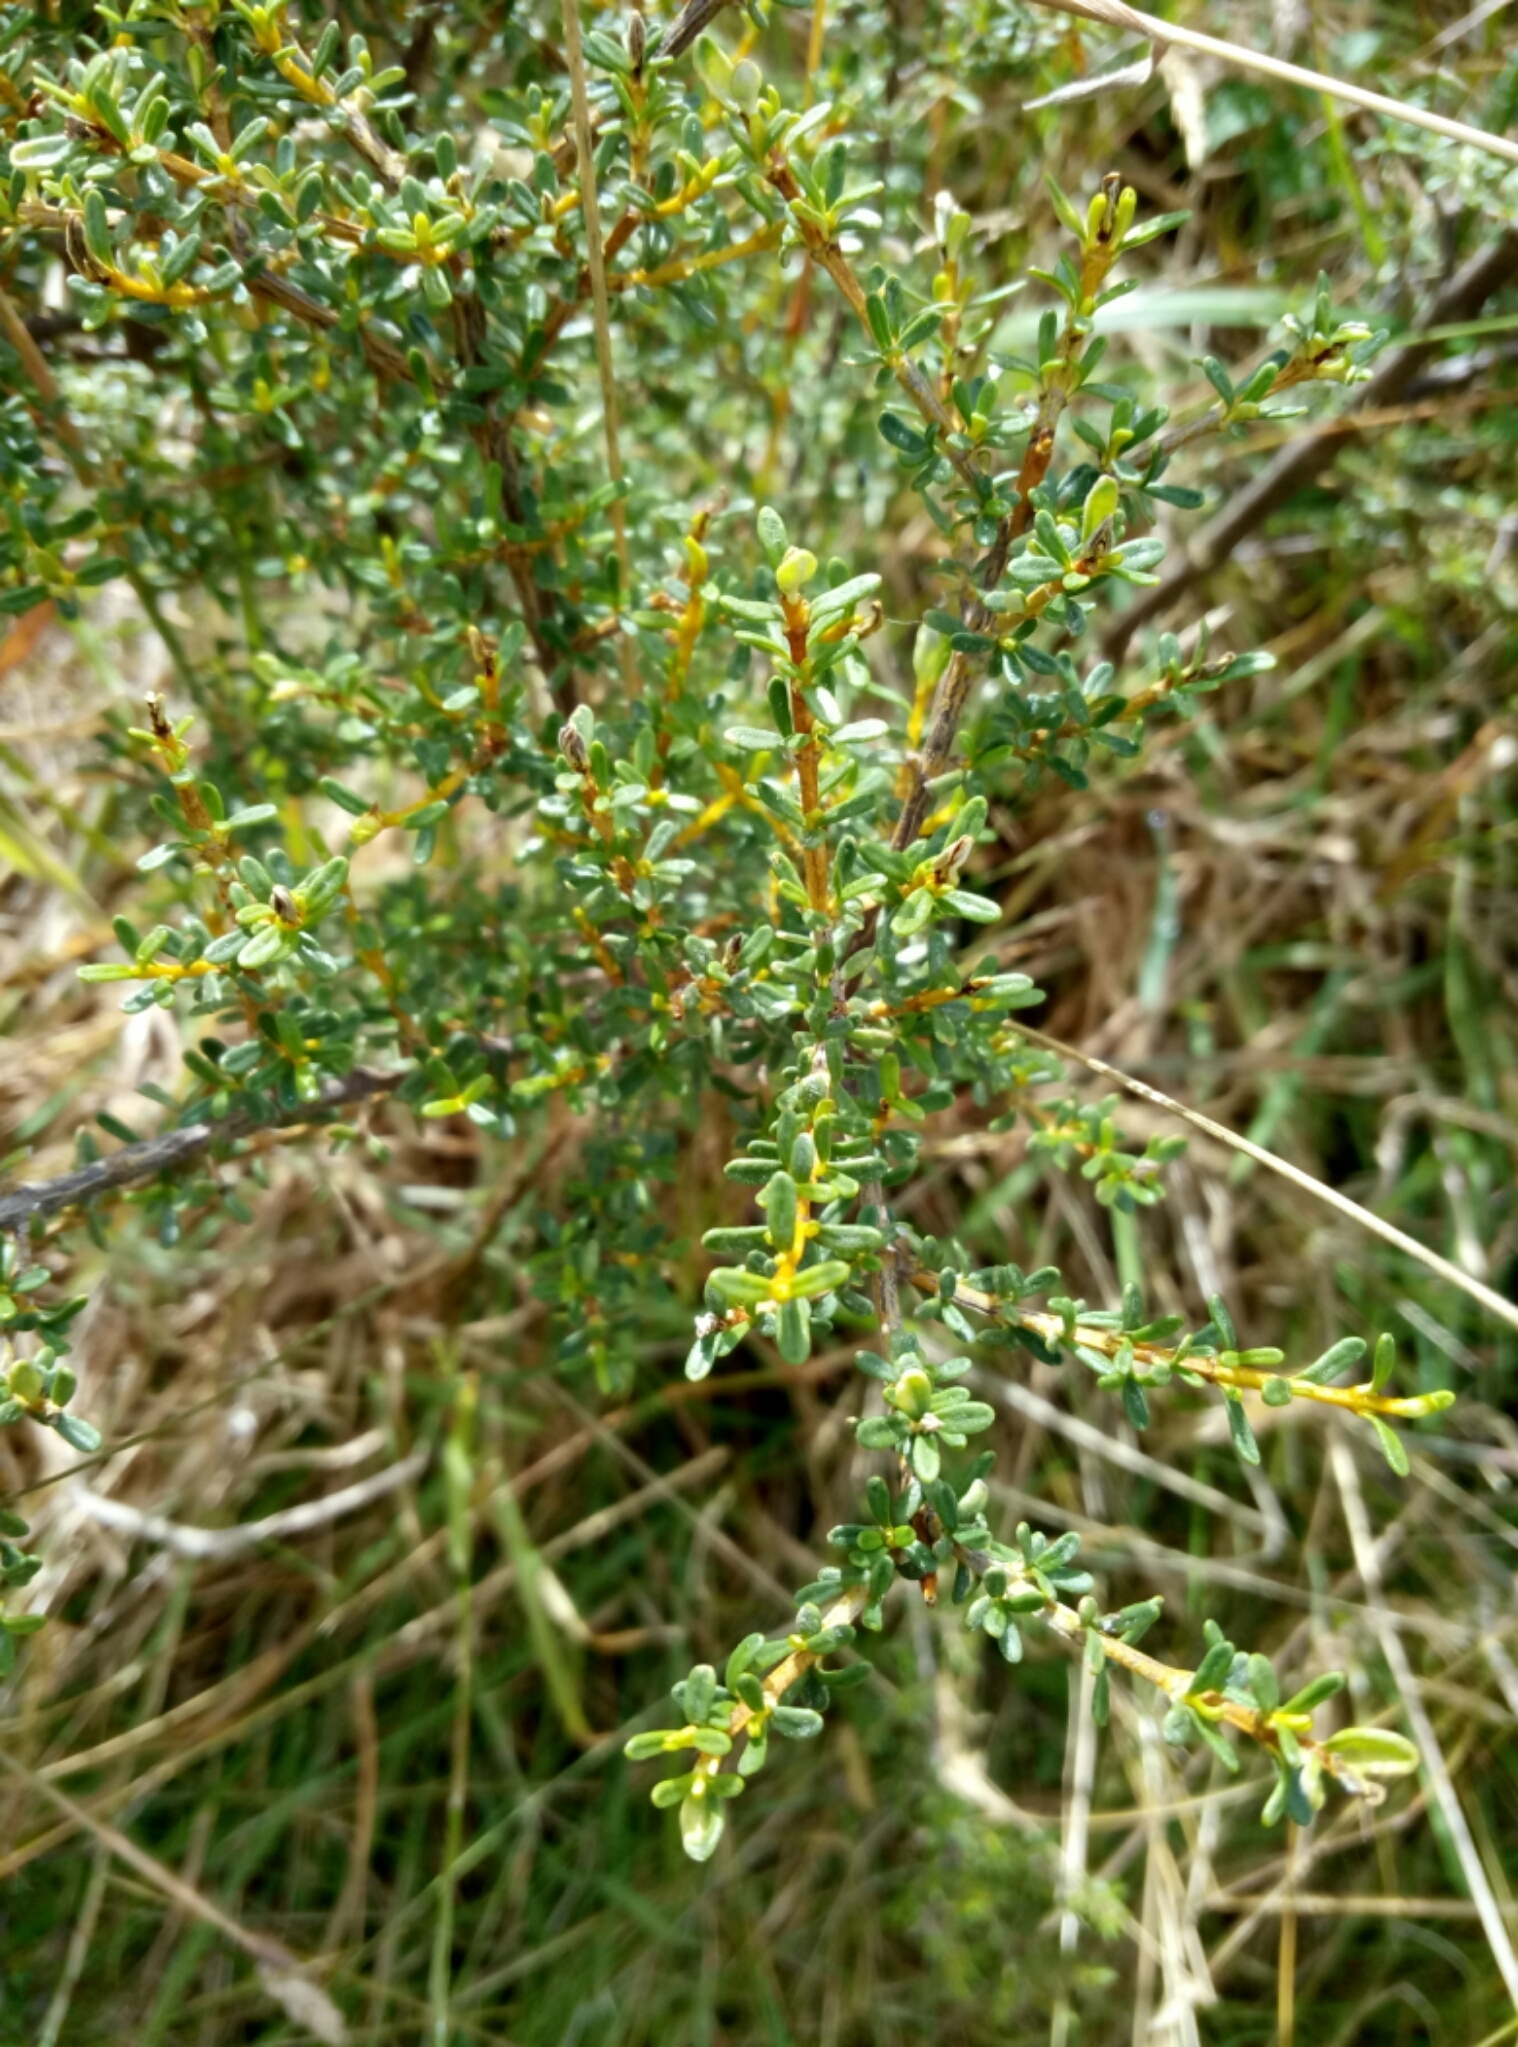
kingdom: Plantae
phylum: Tracheophyta
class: Magnoliopsida
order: Asterales
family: Asteraceae
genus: Olearia
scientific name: Olearia solandri
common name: Coastal daisybush
